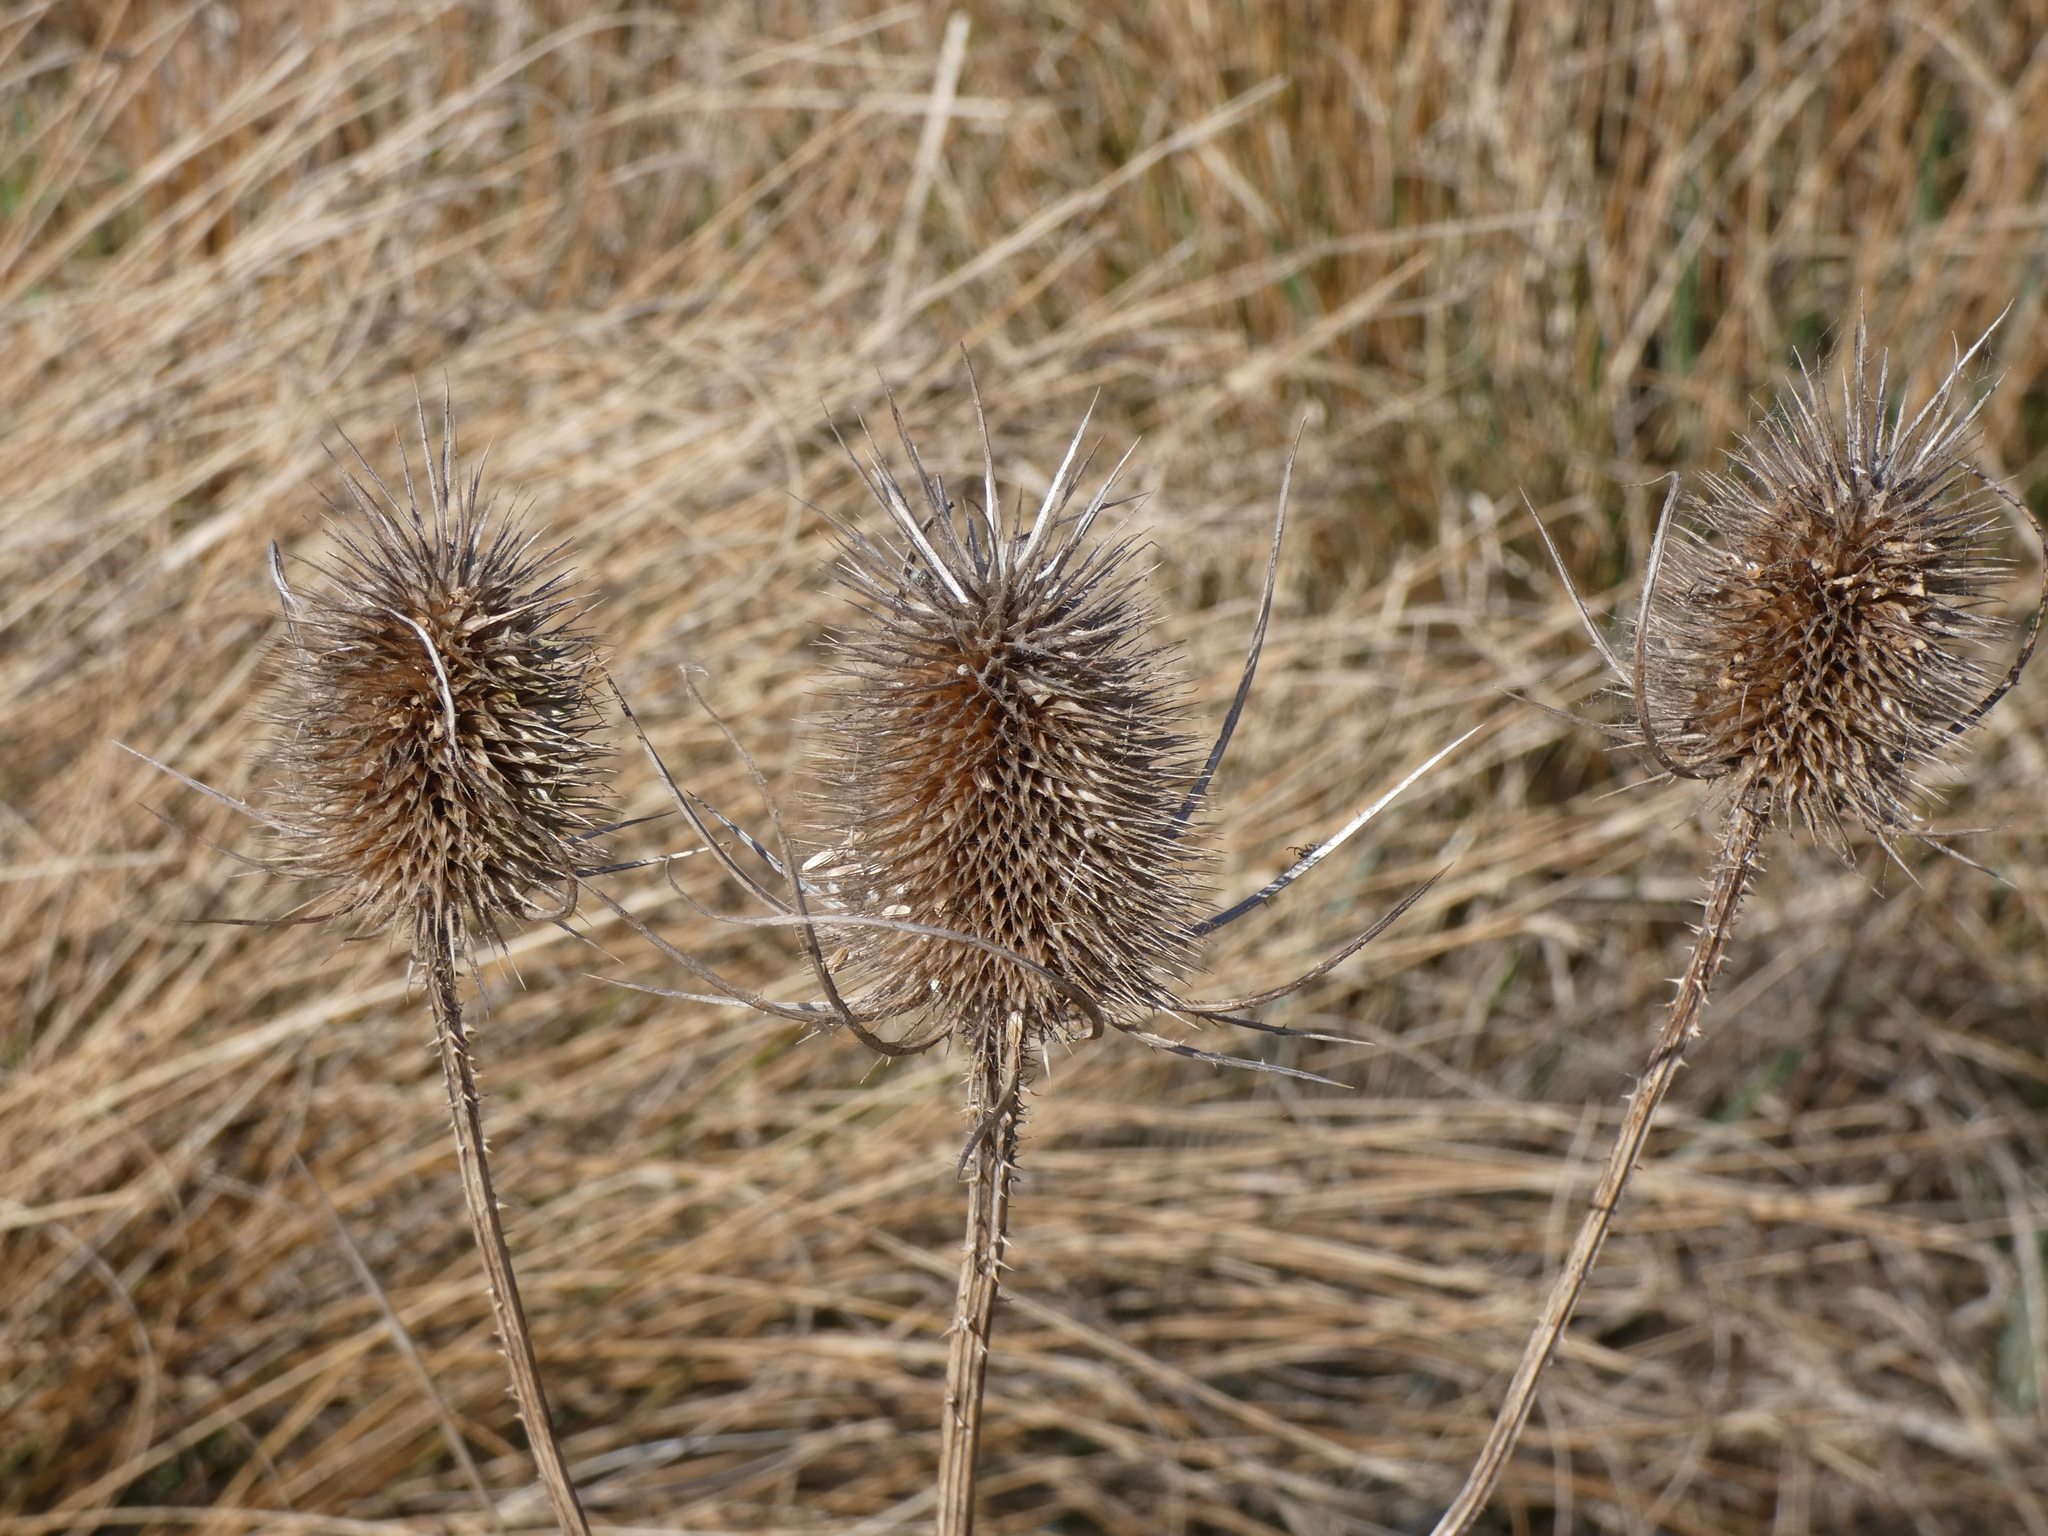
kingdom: Plantae
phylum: Tracheophyta
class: Magnoliopsida
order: Dipsacales
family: Caprifoliaceae
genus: Dipsacus
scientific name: Dipsacus fullonum
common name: Teasel
